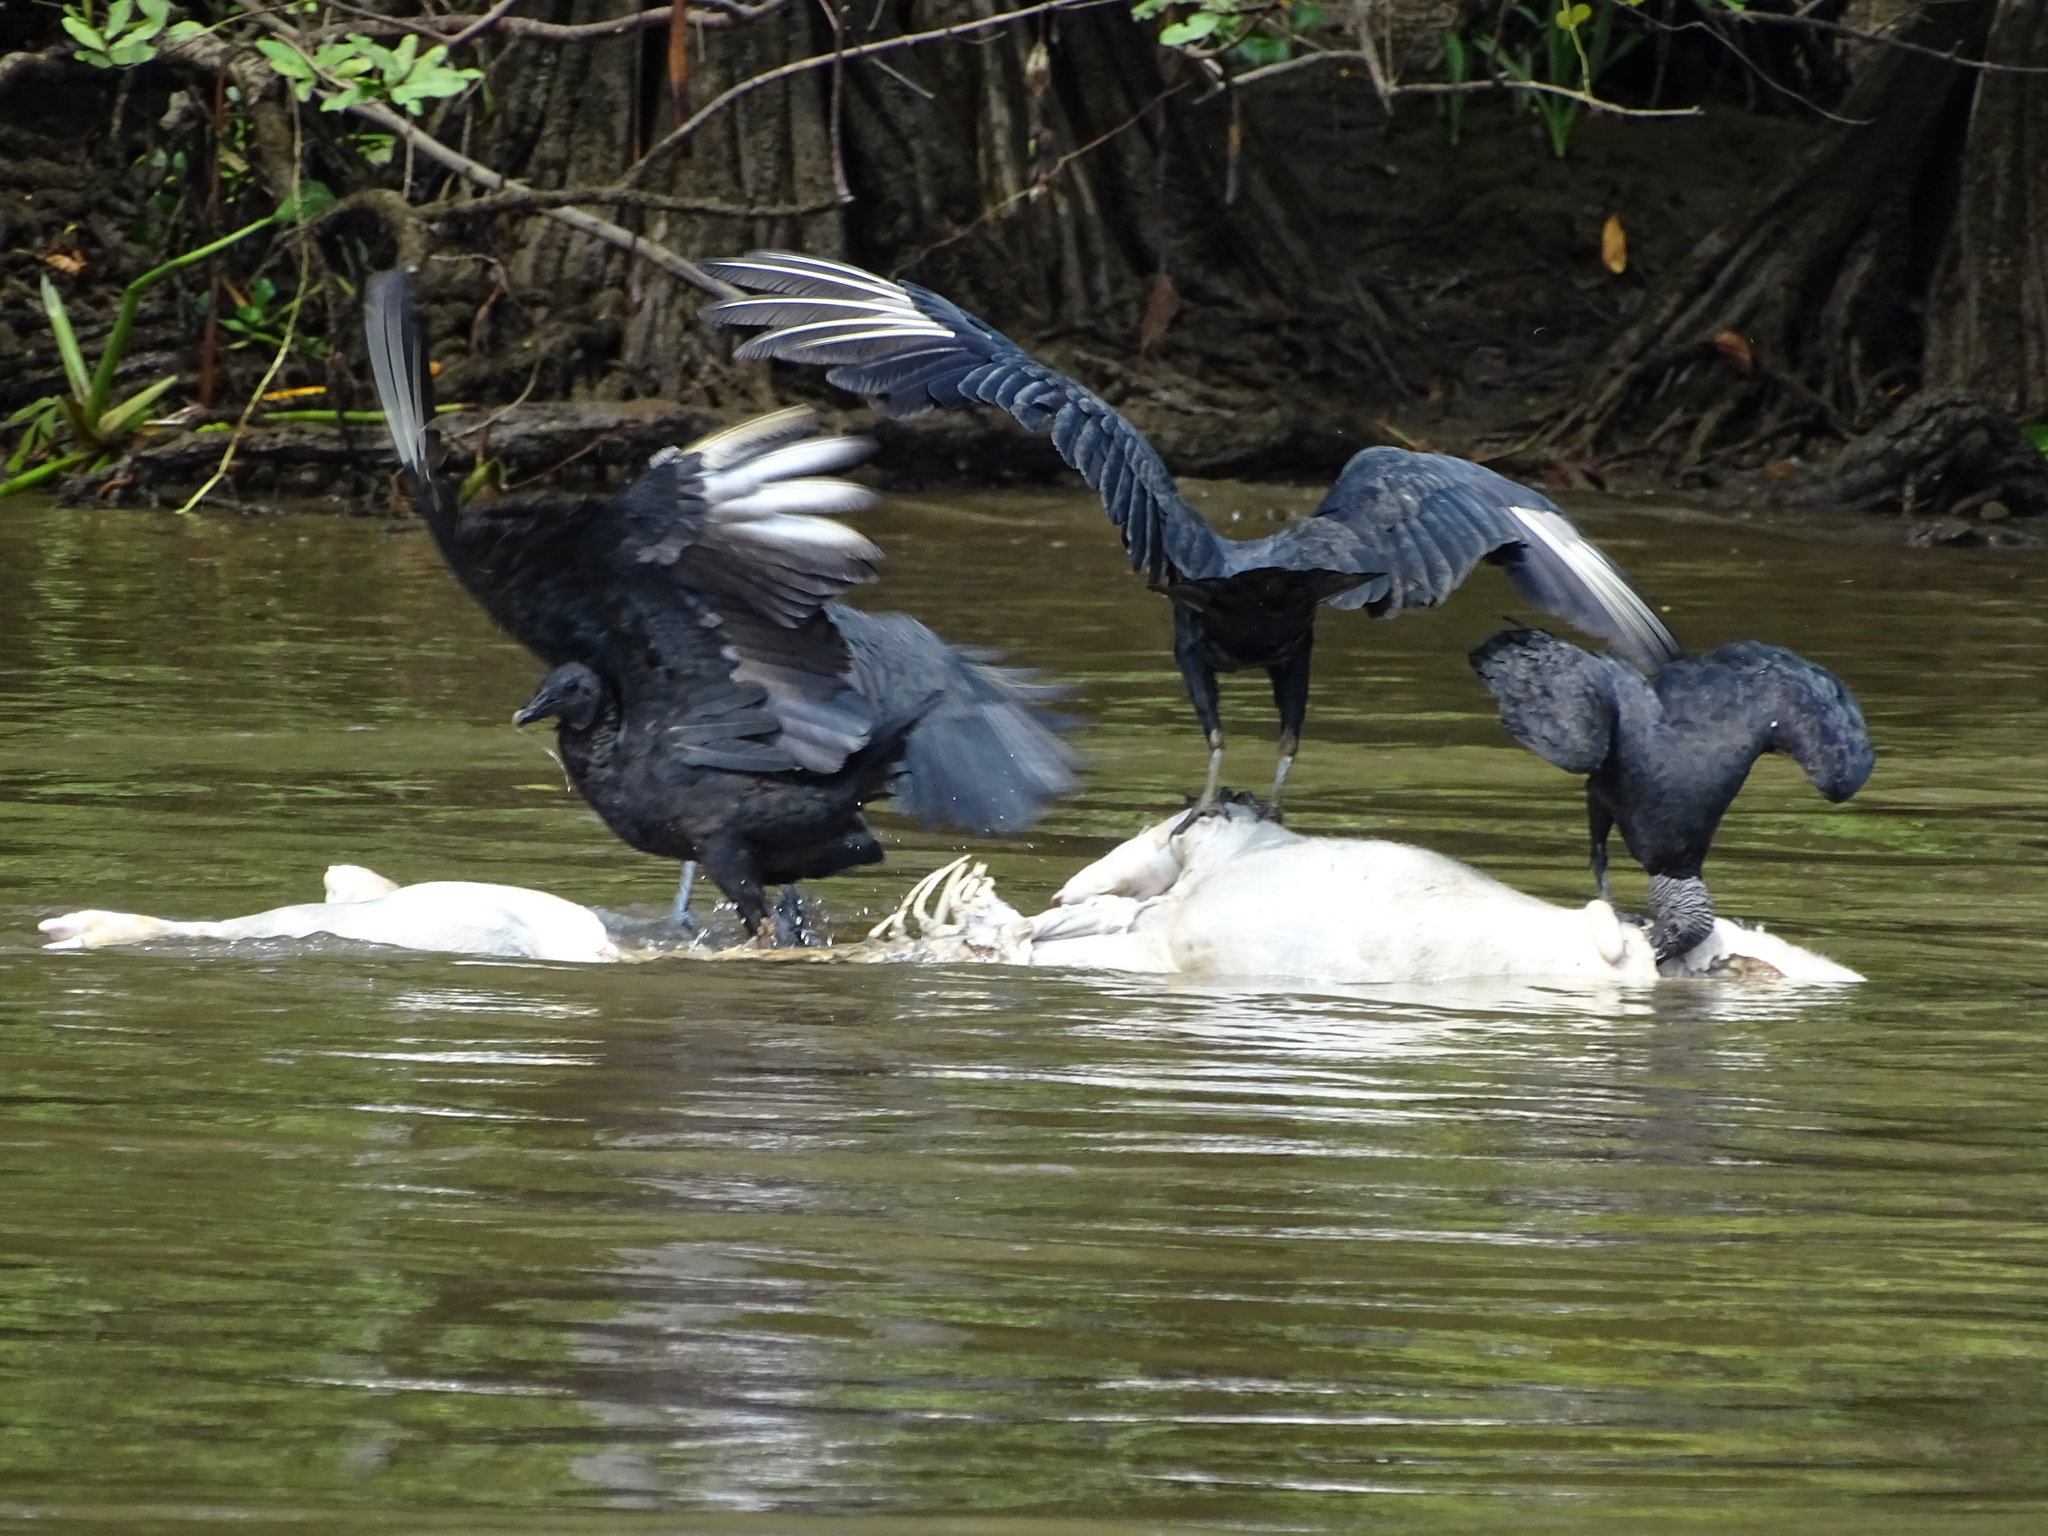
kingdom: Animalia
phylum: Chordata
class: Aves
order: Accipitriformes
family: Cathartidae
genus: Coragyps
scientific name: Coragyps atratus
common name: Black vulture
